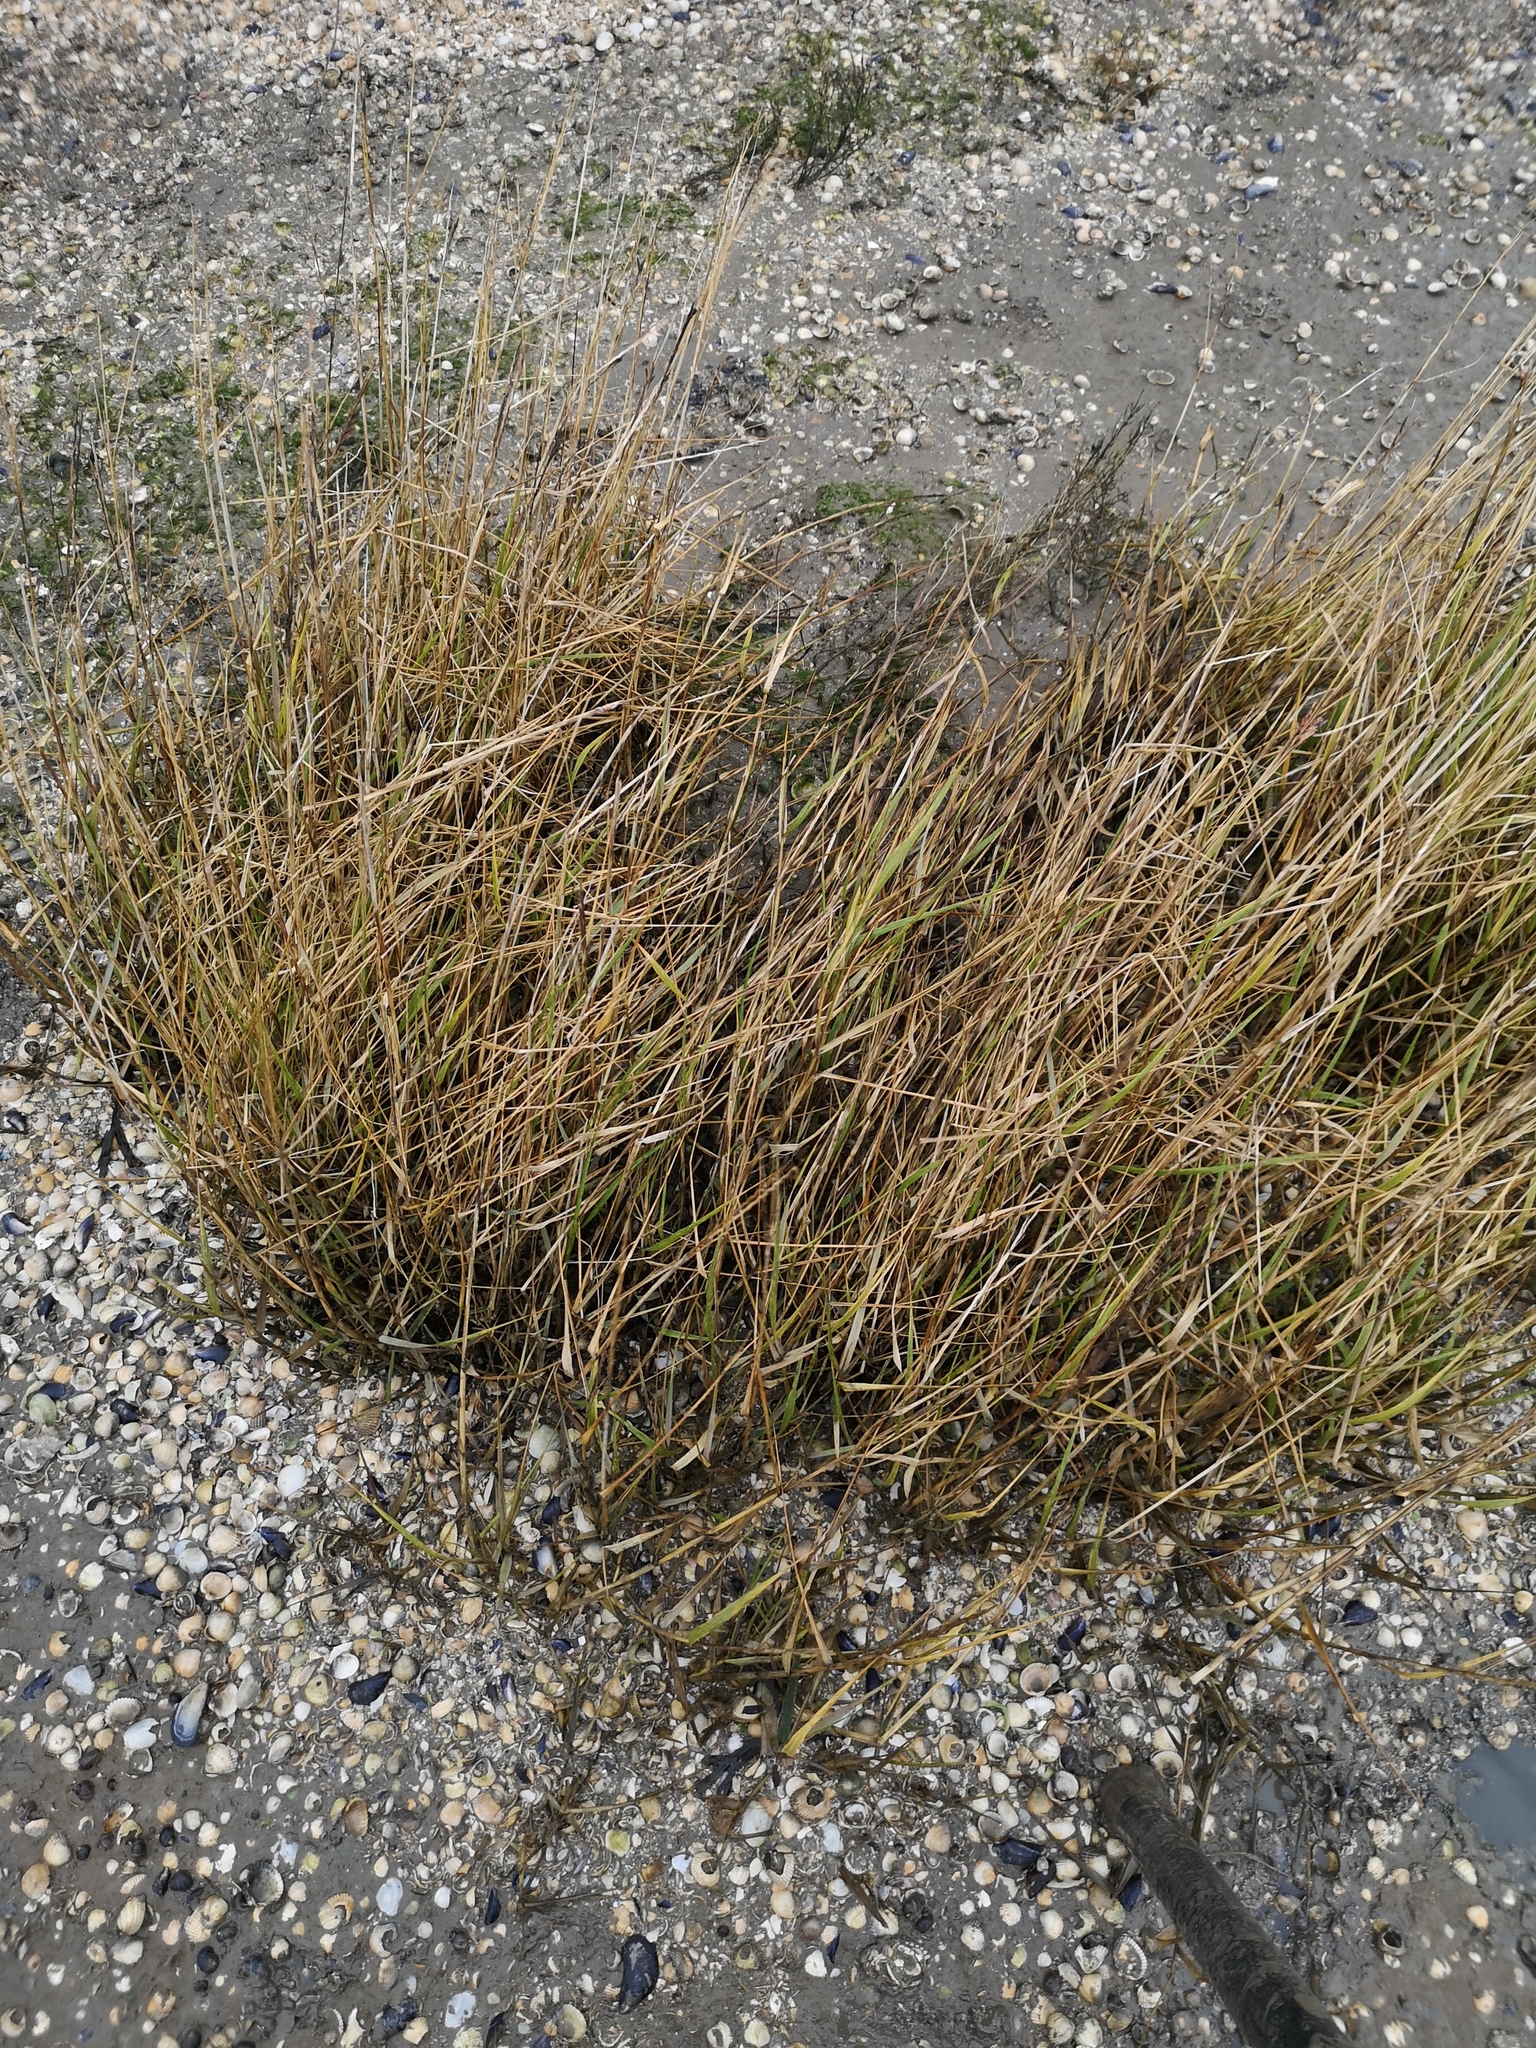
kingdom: Plantae
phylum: Tracheophyta
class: Liliopsida
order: Poales
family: Poaceae
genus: Sporobolus
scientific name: Sporobolus anglicus
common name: English cordgrass
